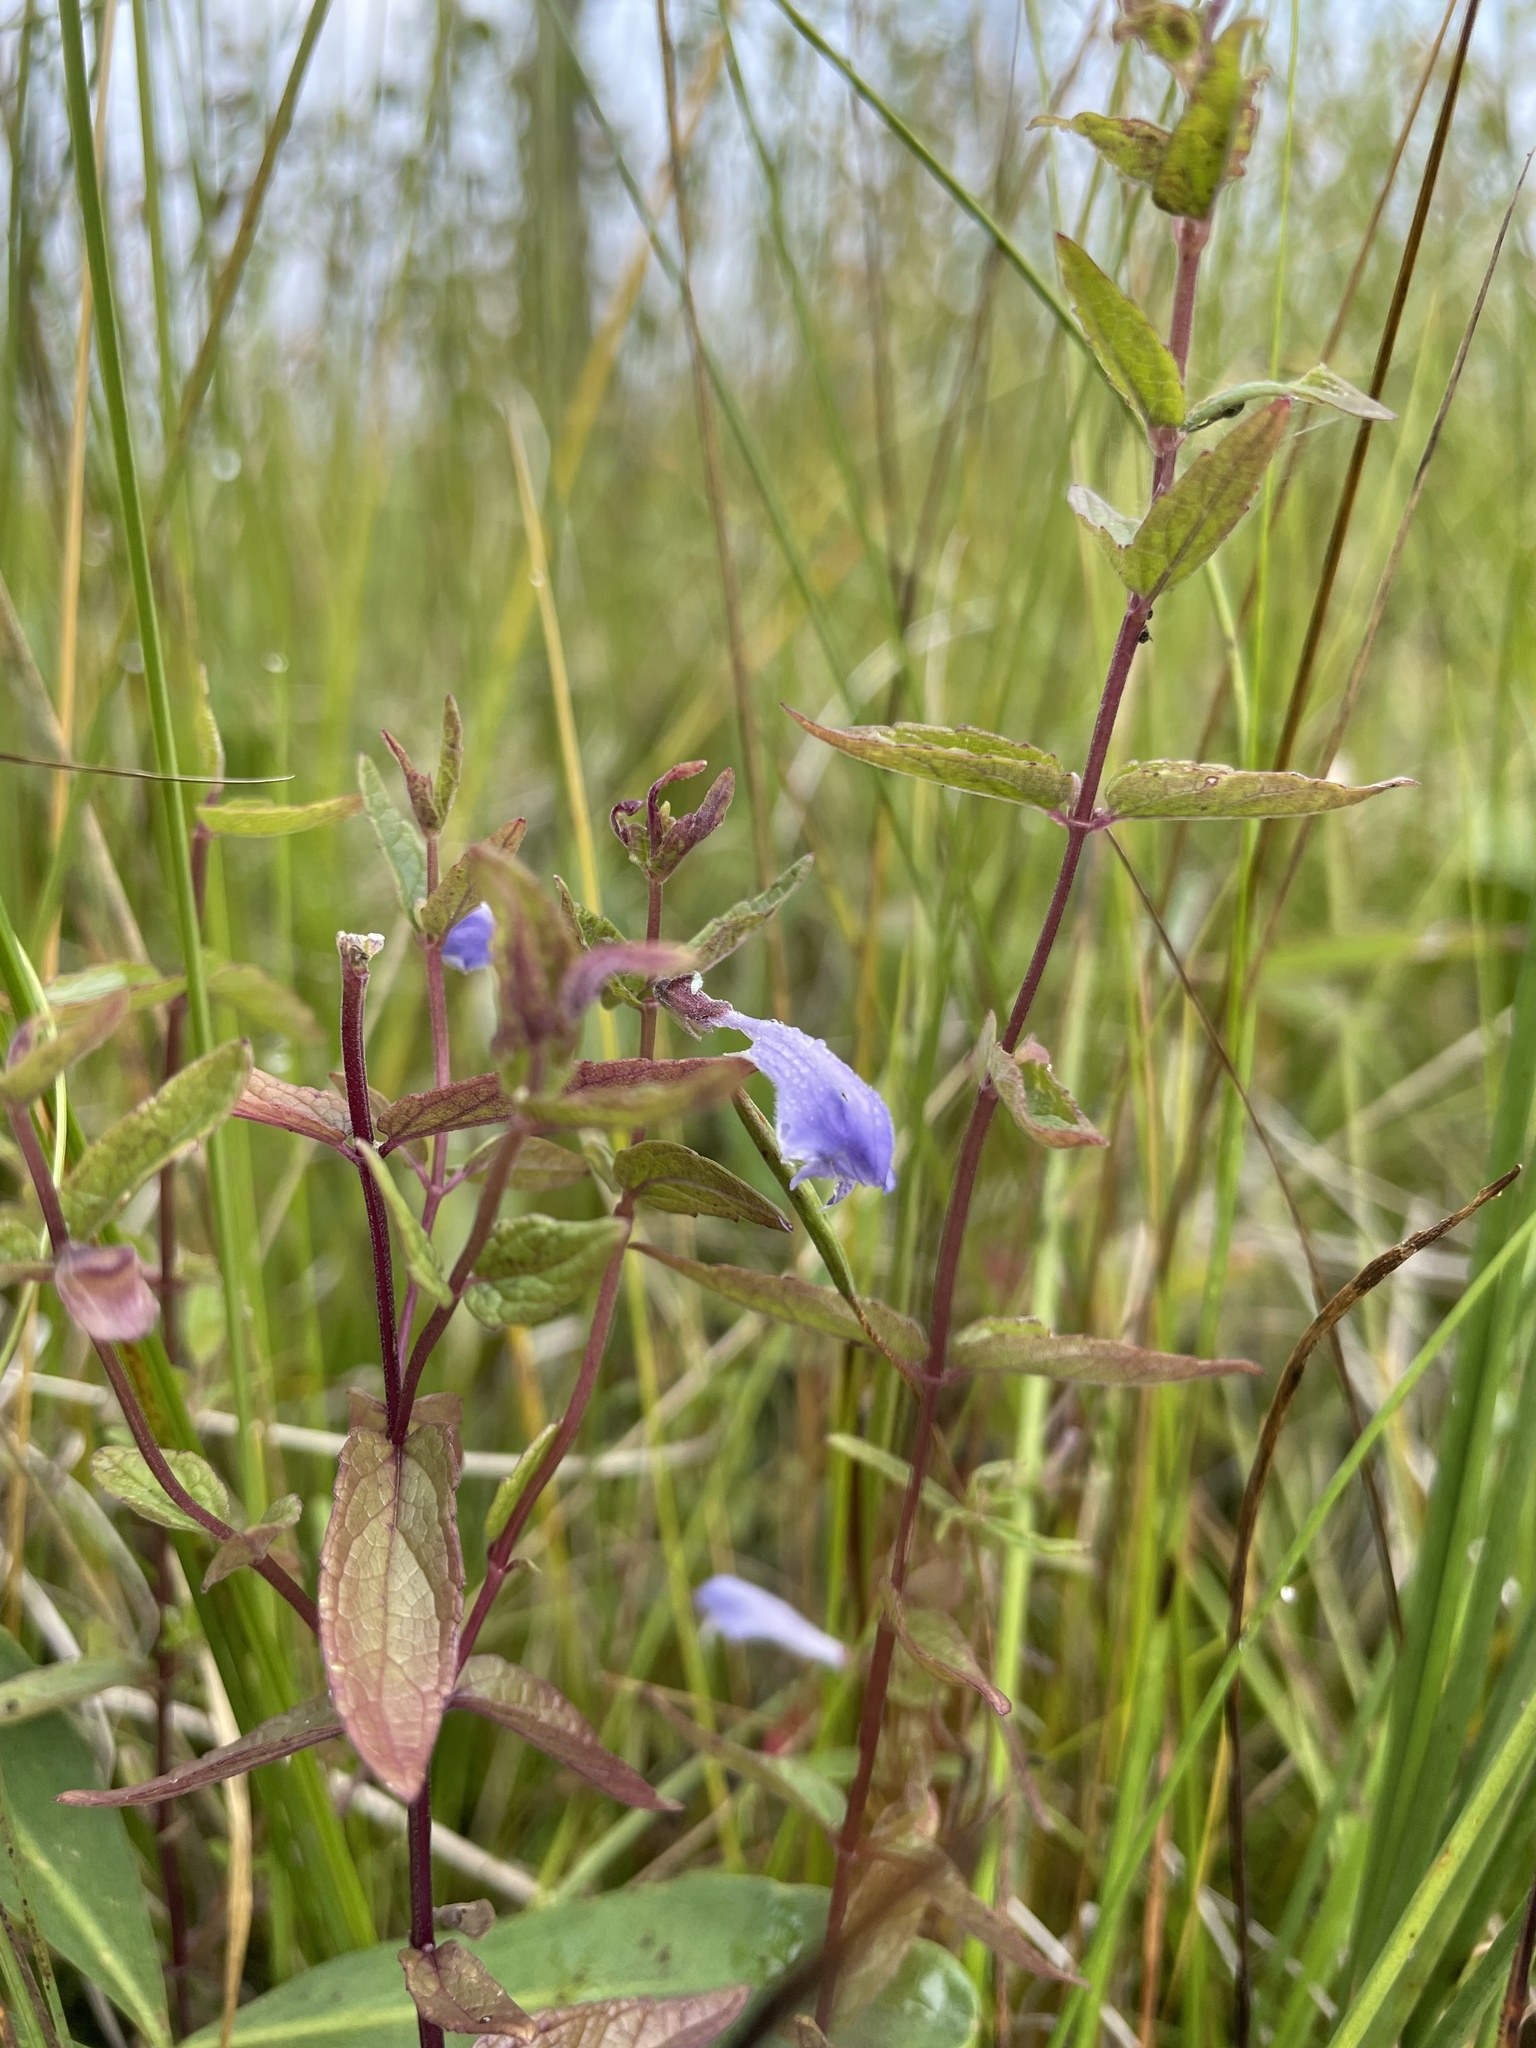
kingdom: Plantae
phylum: Tracheophyta
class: Magnoliopsida
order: Lamiales
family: Lamiaceae
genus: Scutellaria
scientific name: Scutellaria galericulata
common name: Skullcap
